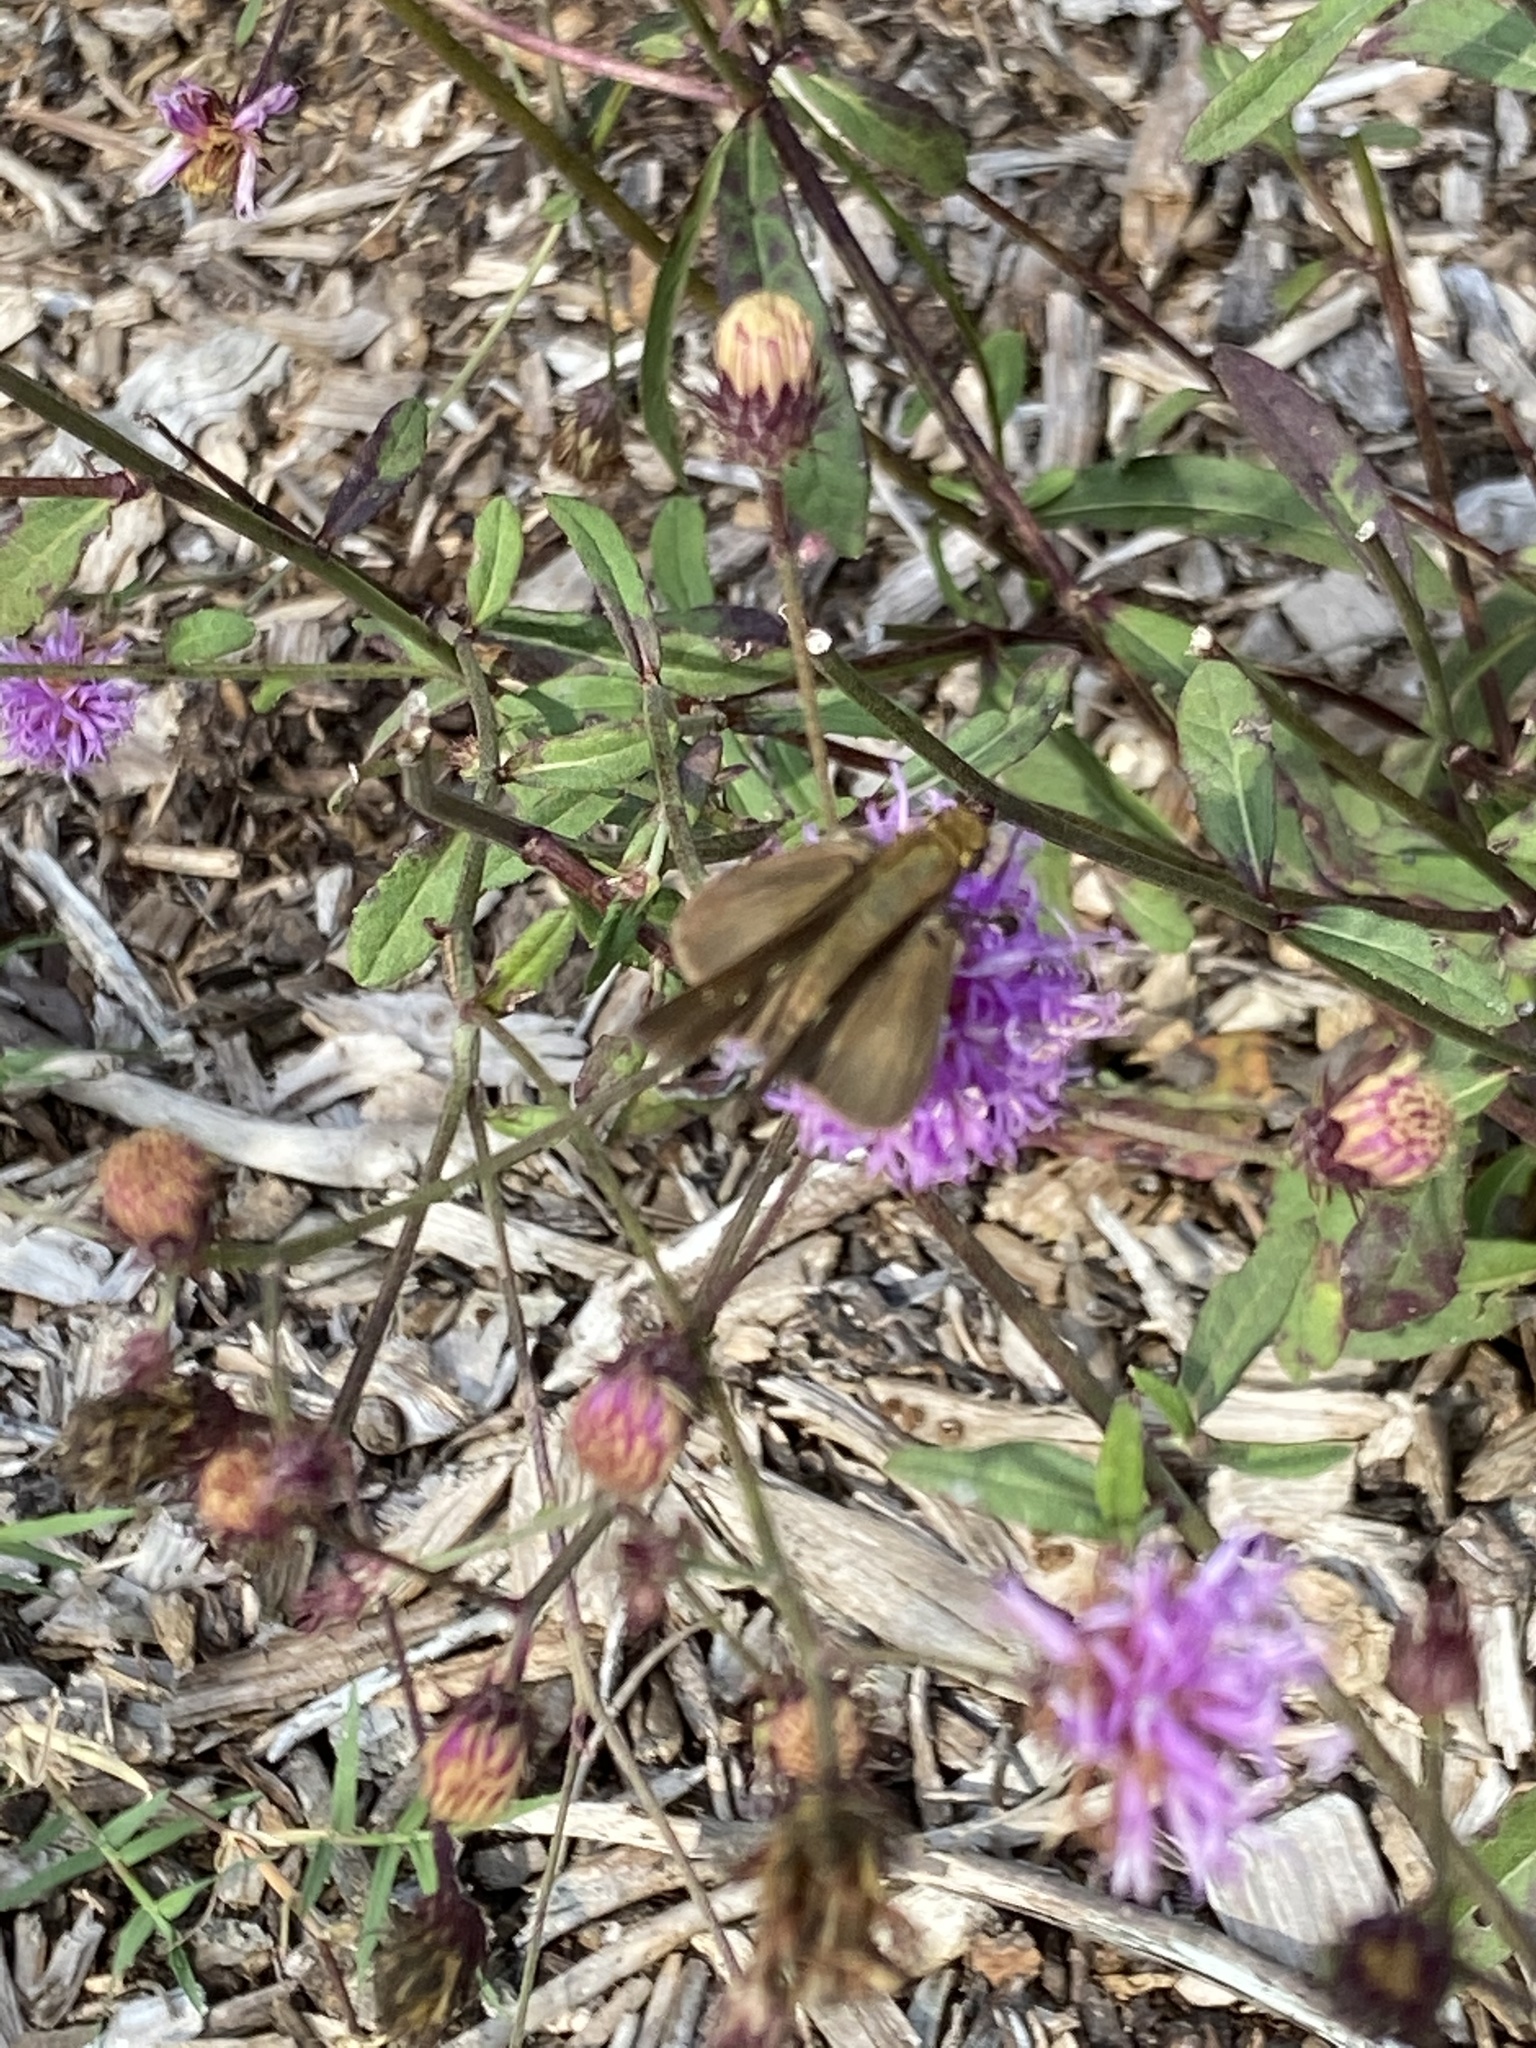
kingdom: Animalia
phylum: Arthropoda
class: Insecta
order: Lepidoptera
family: Hesperiidae
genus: Panoquina
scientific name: Panoquina ocola
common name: Ocola skipper
